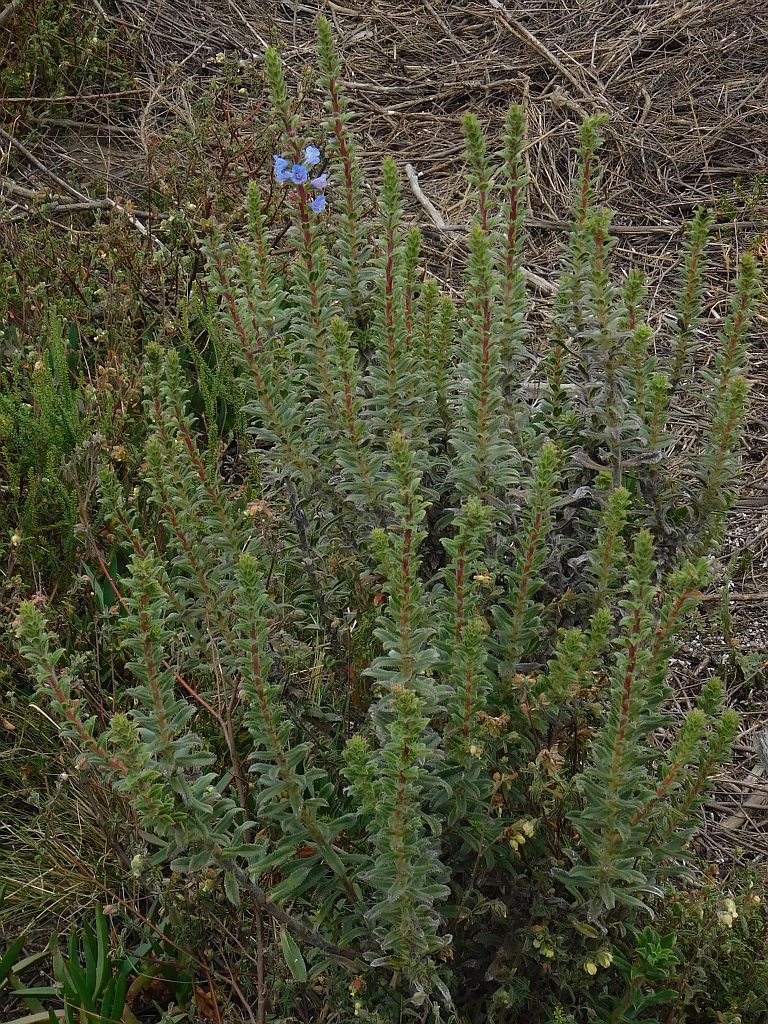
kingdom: Plantae
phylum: Tracheophyta
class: Magnoliopsida
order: Boraginales
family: Boraginaceae
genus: Lobostemon
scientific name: Lobostemon argenteus
